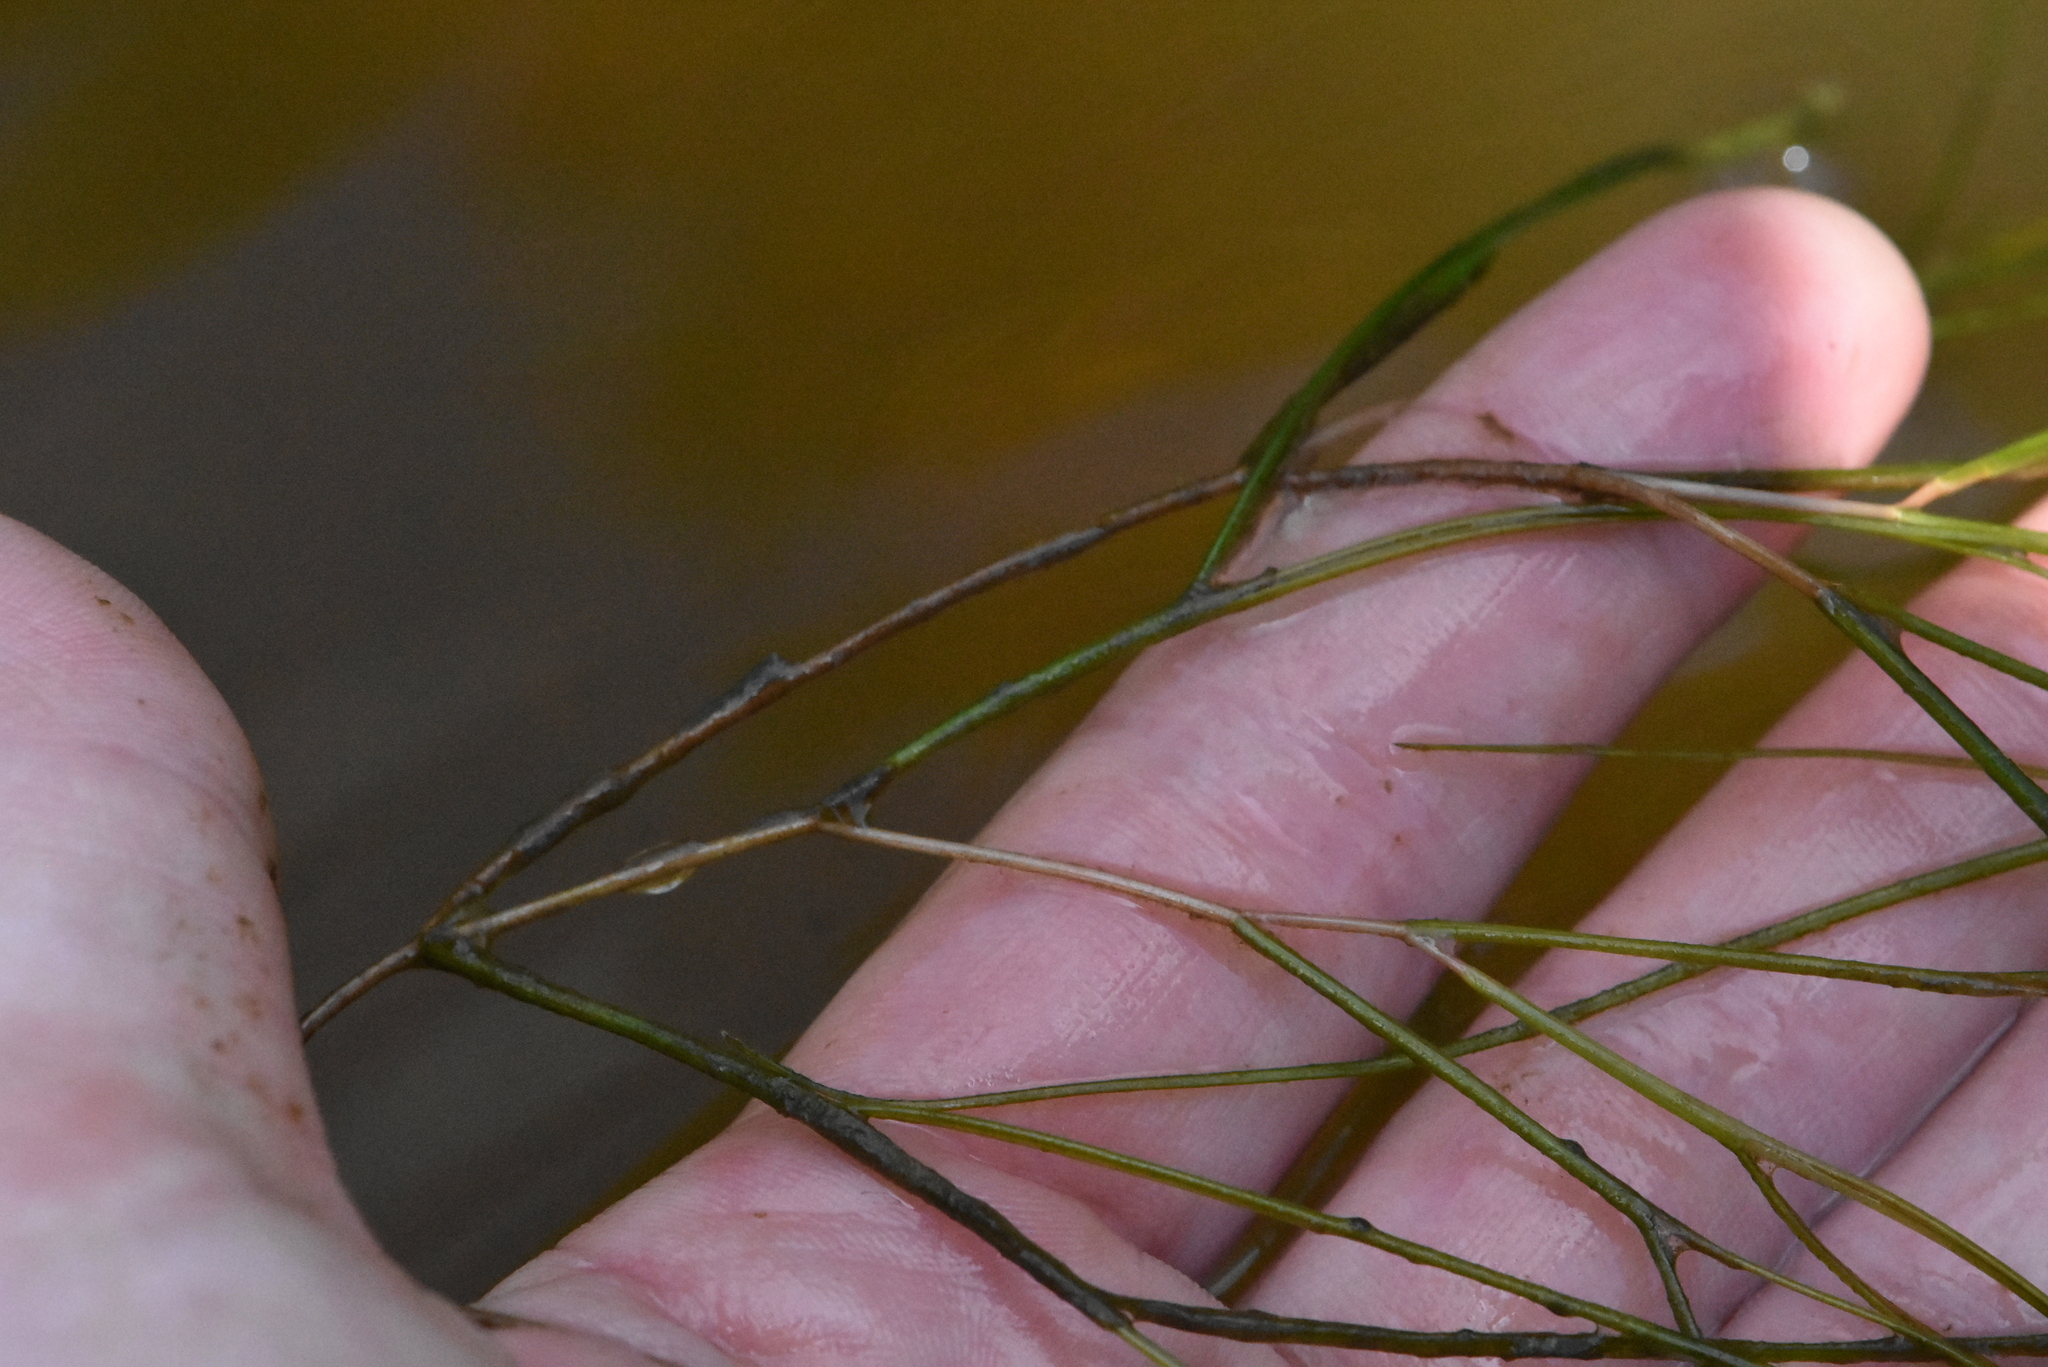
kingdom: Plantae
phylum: Tracheophyta
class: Liliopsida
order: Alismatales
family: Potamogetonaceae
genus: Stuckenia
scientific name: Stuckenia pectinata
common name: Sago pondweed
